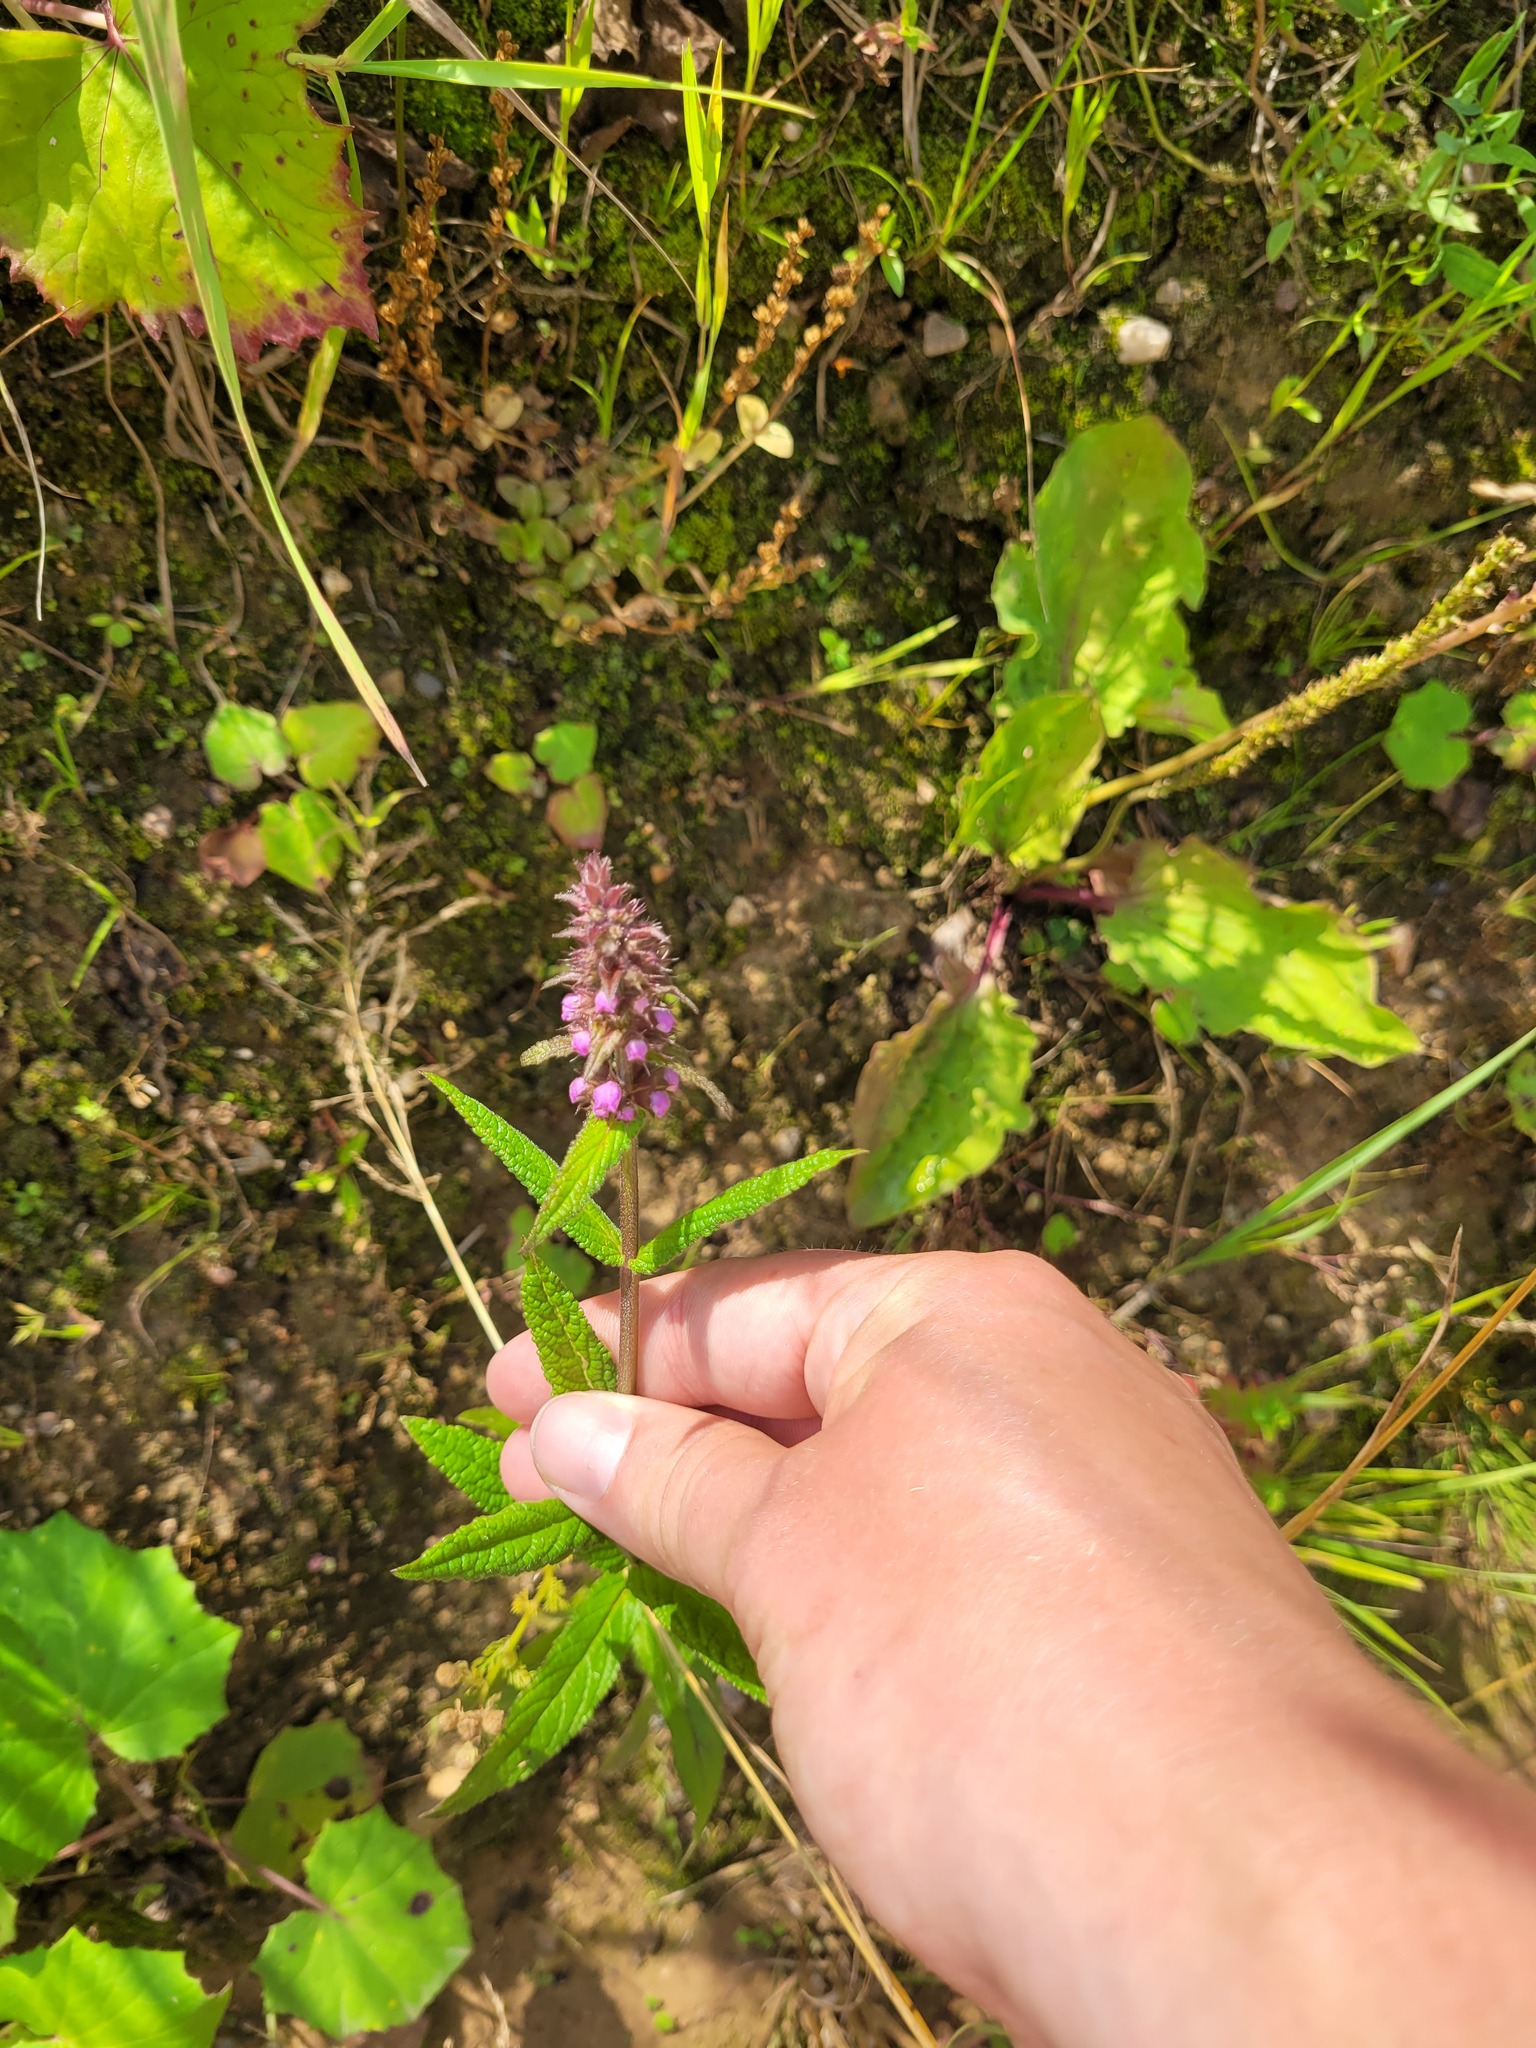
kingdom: Plantae
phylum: Tracheophyta
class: Magnoliopsida
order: Lamiales
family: Lamiaceae
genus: Stachys
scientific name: Stachys palustris
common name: Marsh woundwort
